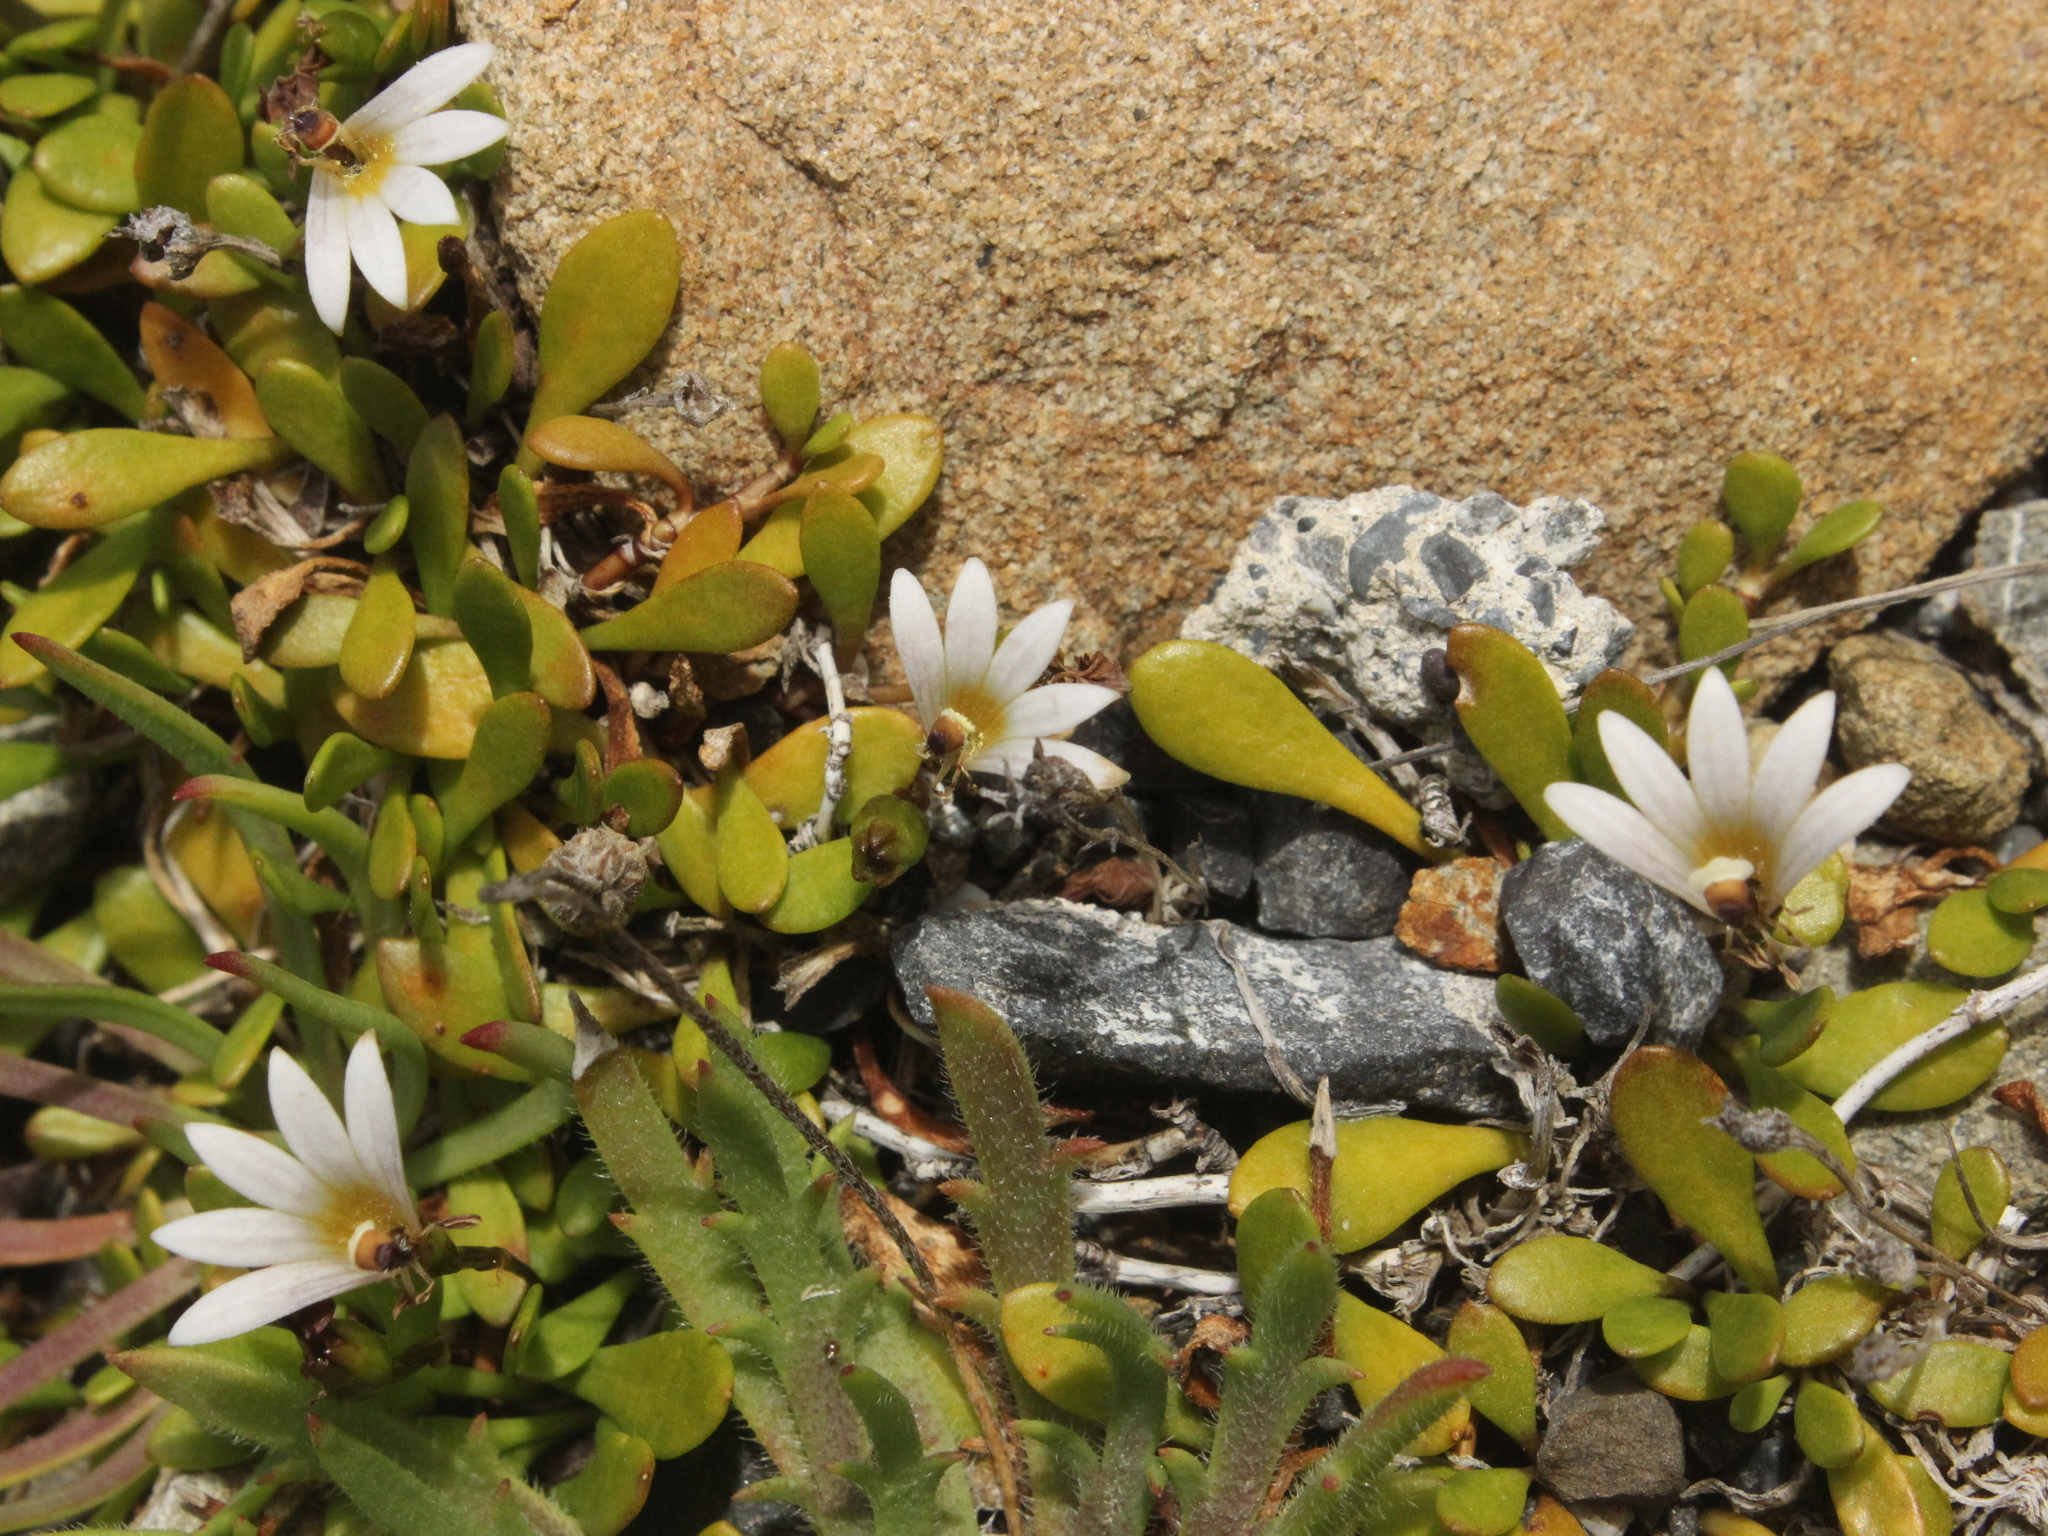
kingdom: Plantae
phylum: Tracheophyta
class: Magnoliopsida
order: Asterales
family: Goodeniaceae
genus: Goodenia
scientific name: Goodenia radicans
